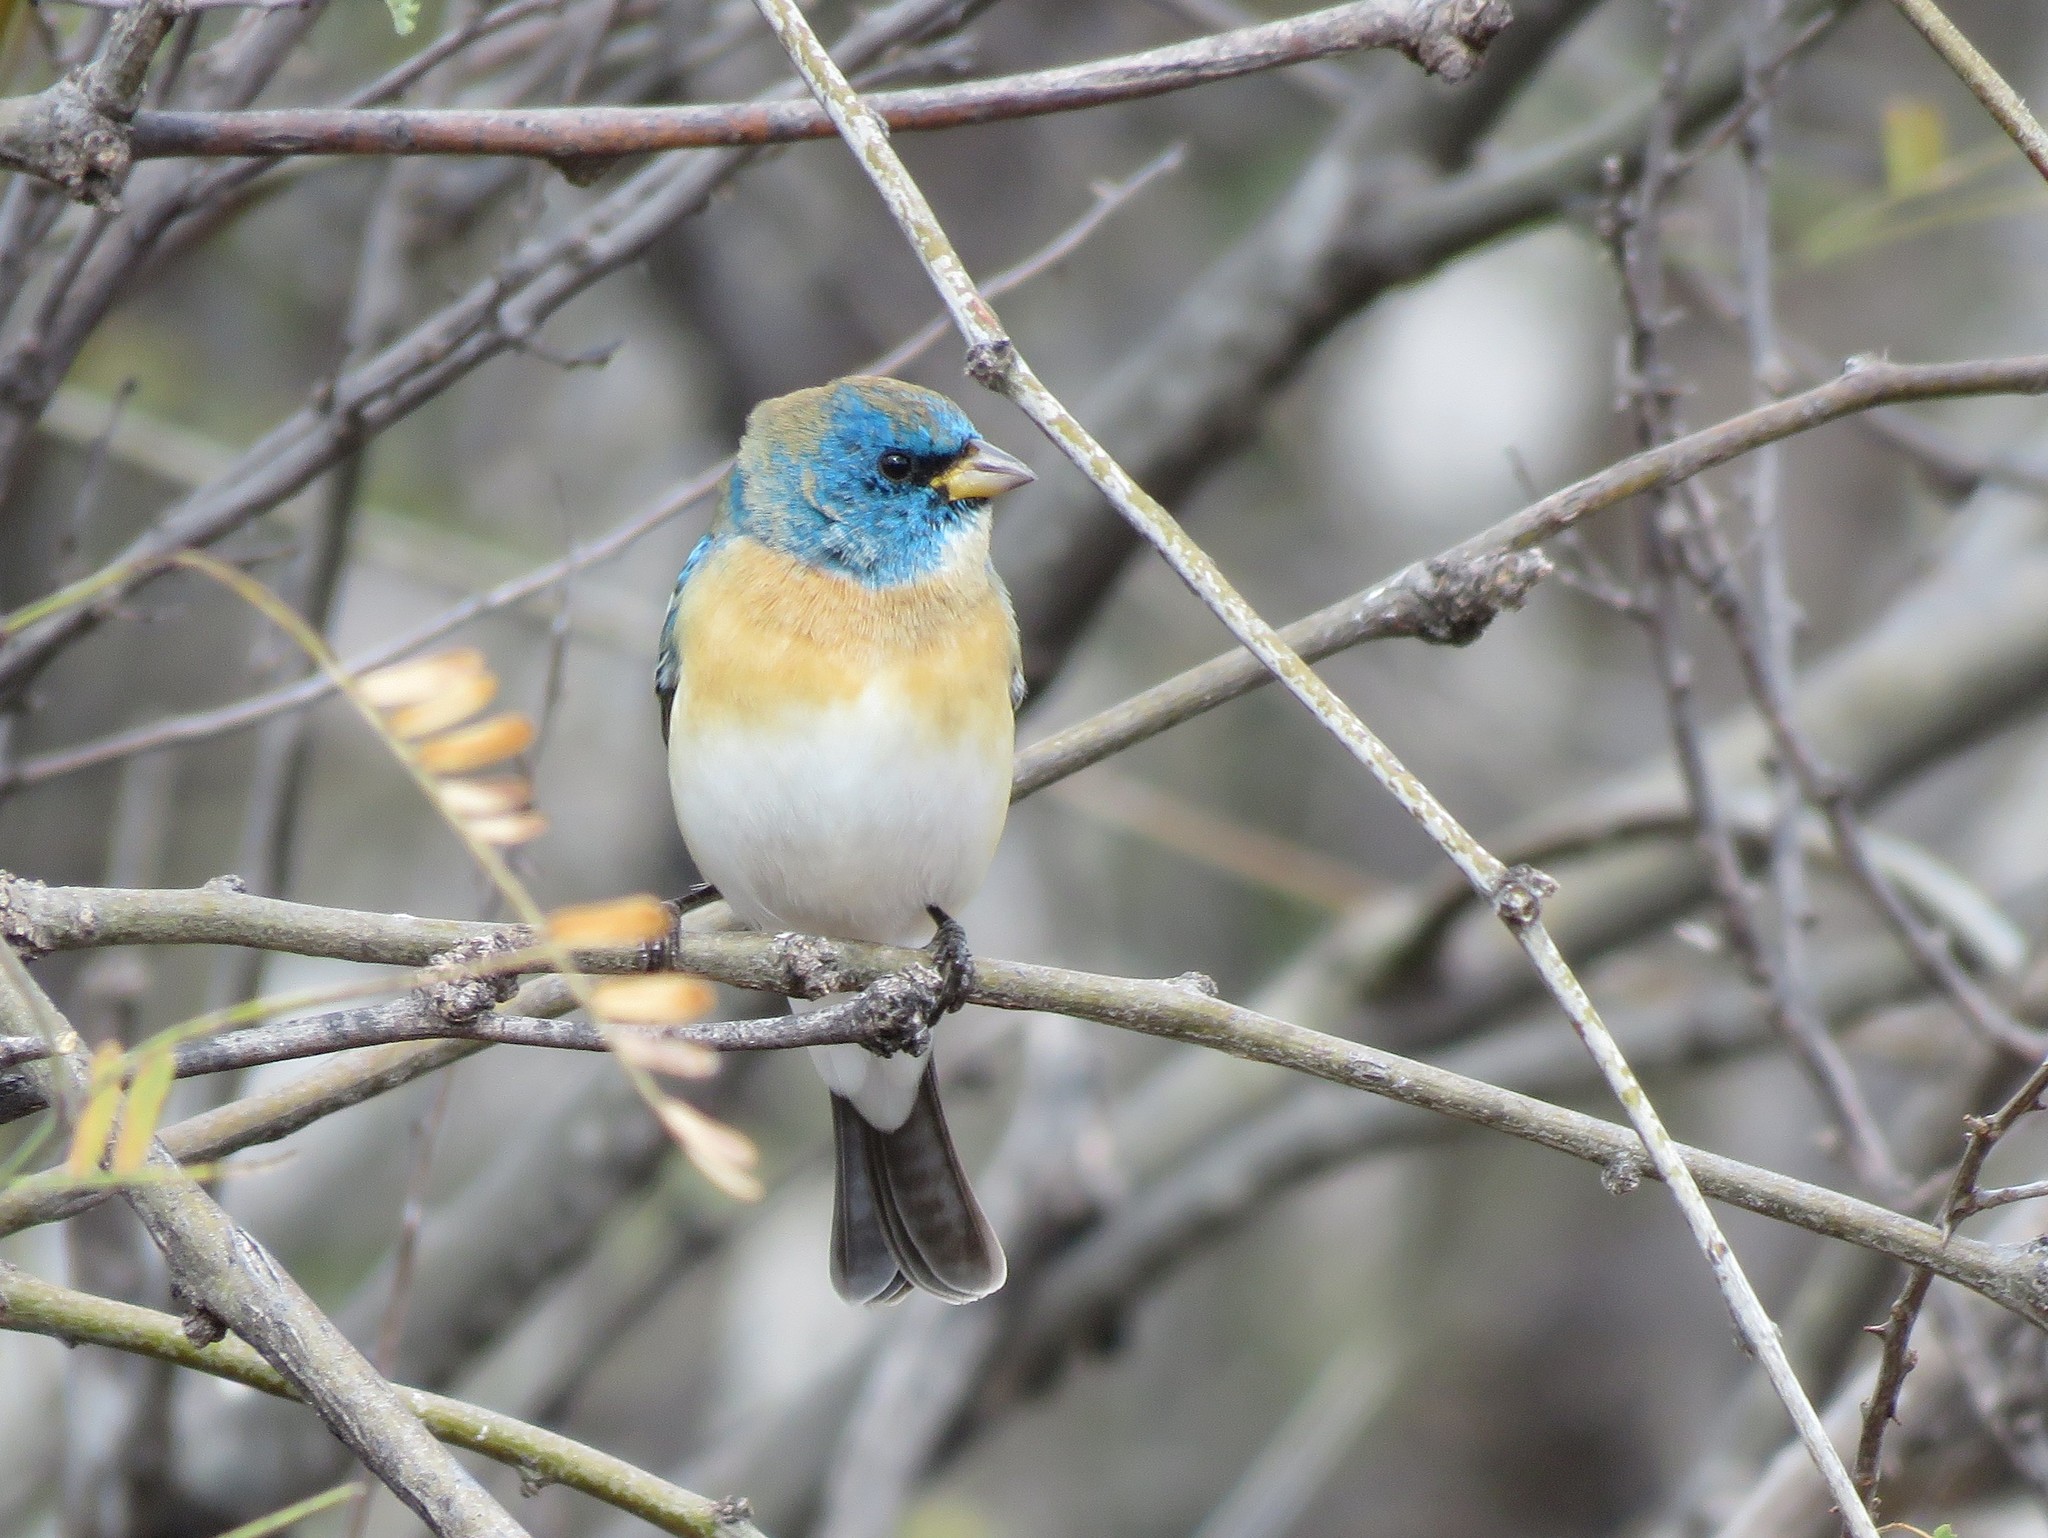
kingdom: Animalia
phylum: Chordata
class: Aves
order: Passeriformes
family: Cardinalidae
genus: Passerina
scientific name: Passerina amoena
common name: Lazuli bunting
